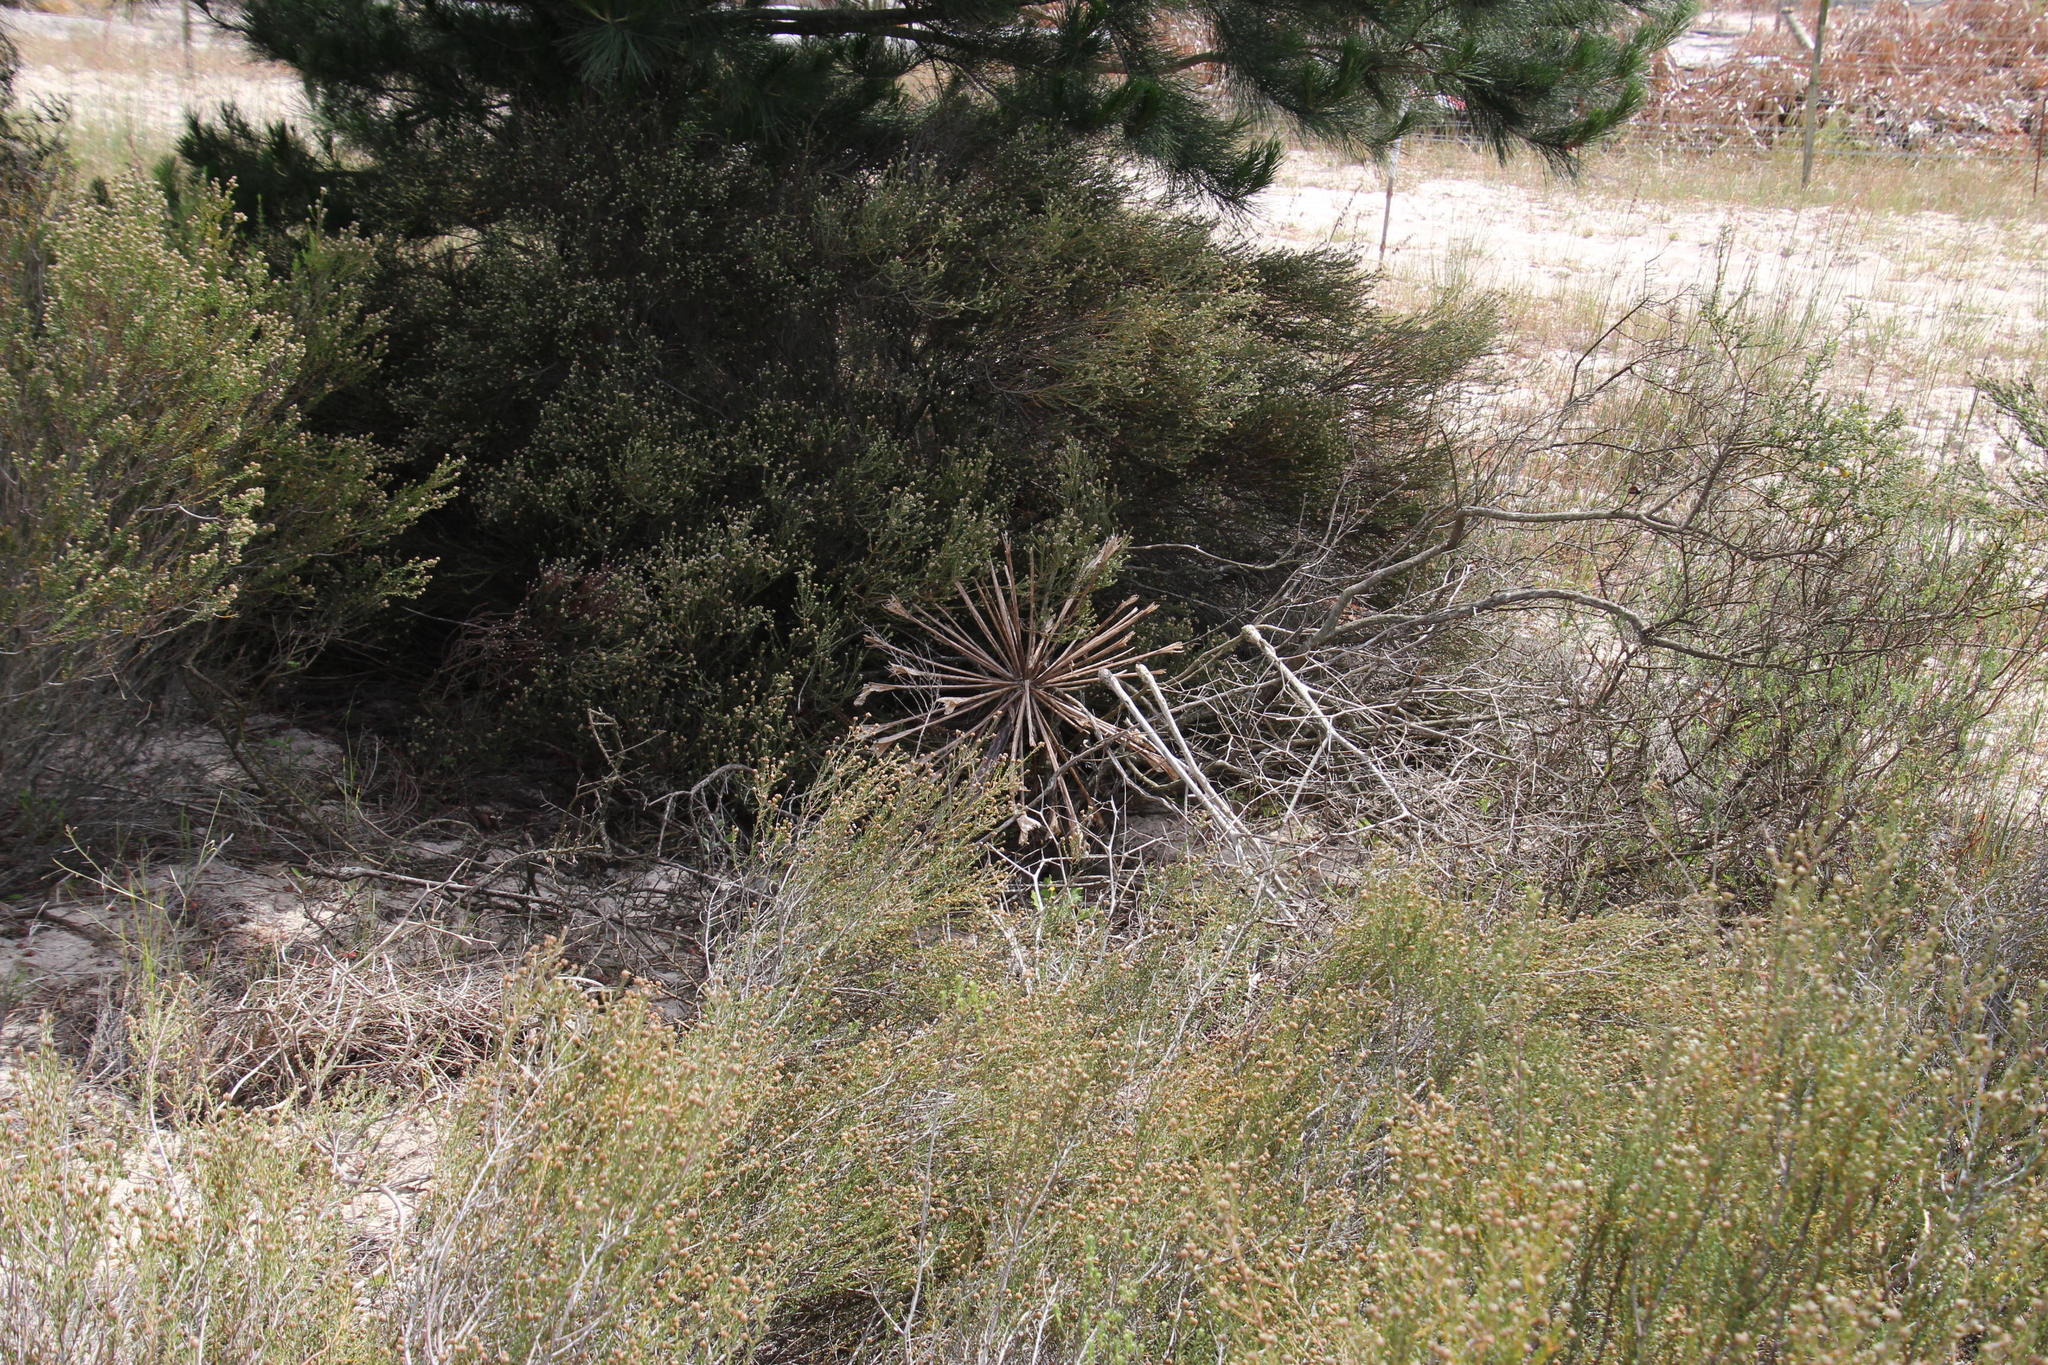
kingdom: Plantae
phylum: Tracheophyta
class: Liliopsida
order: Asparagales
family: Amaryllidaceae
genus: Brunsvigia
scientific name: Brunsvigia orientalis
